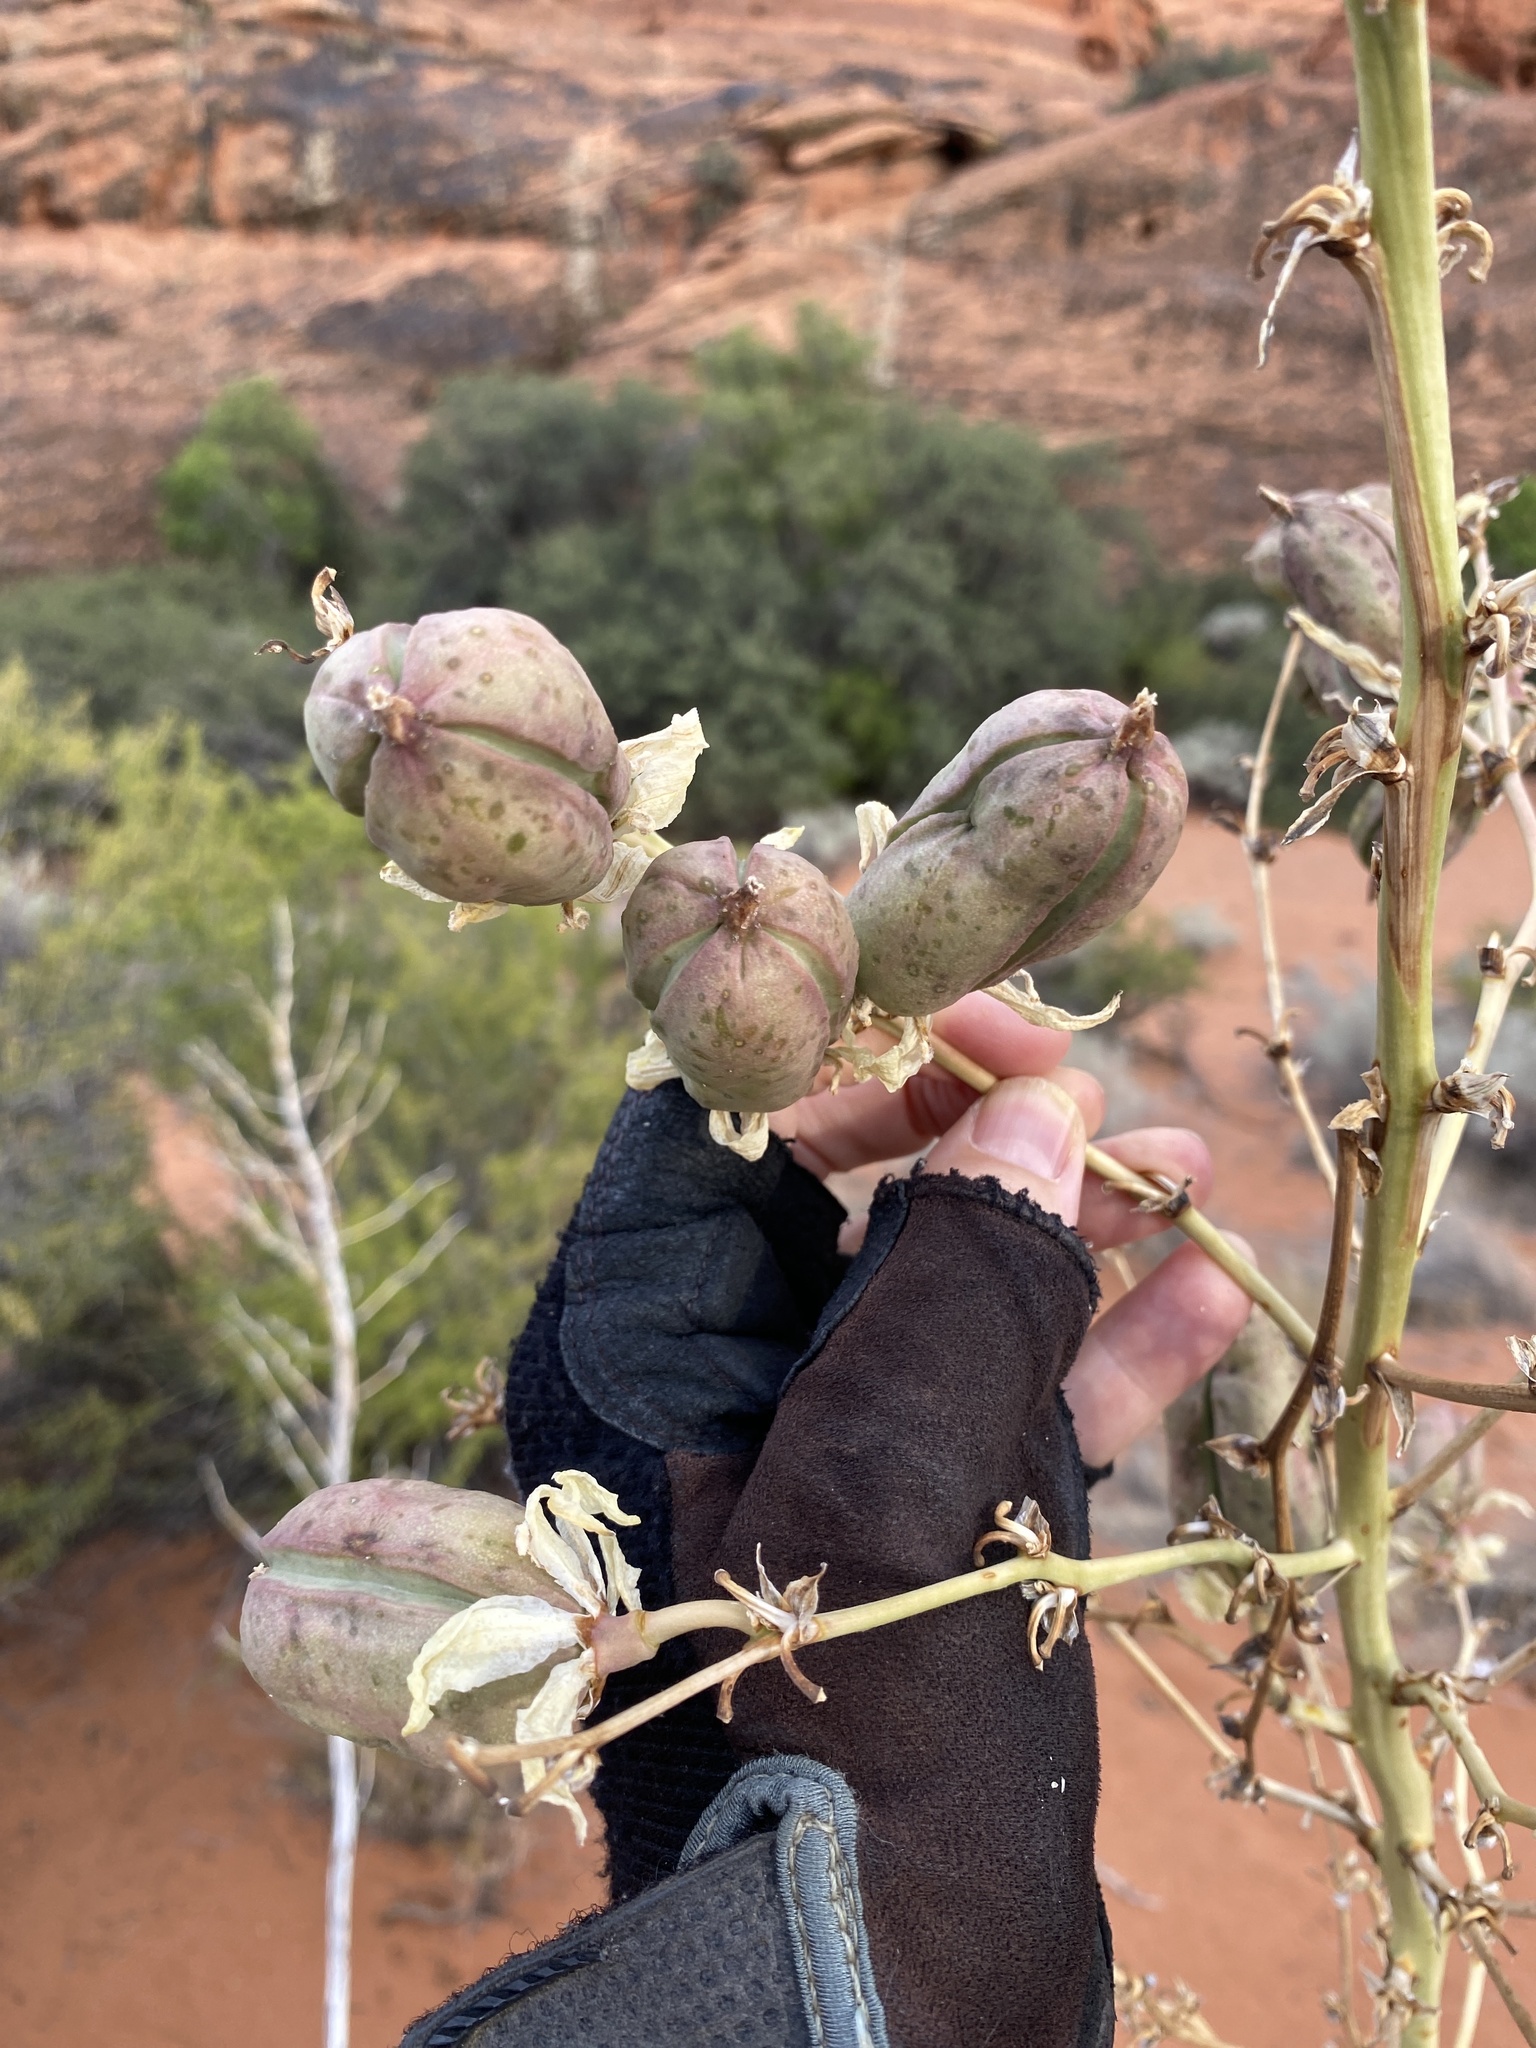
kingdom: Plantae
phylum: Tracheophyta
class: Liliopsida
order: Asparagales
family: Asparagaceae
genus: Yucca
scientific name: Yucca utahensis
